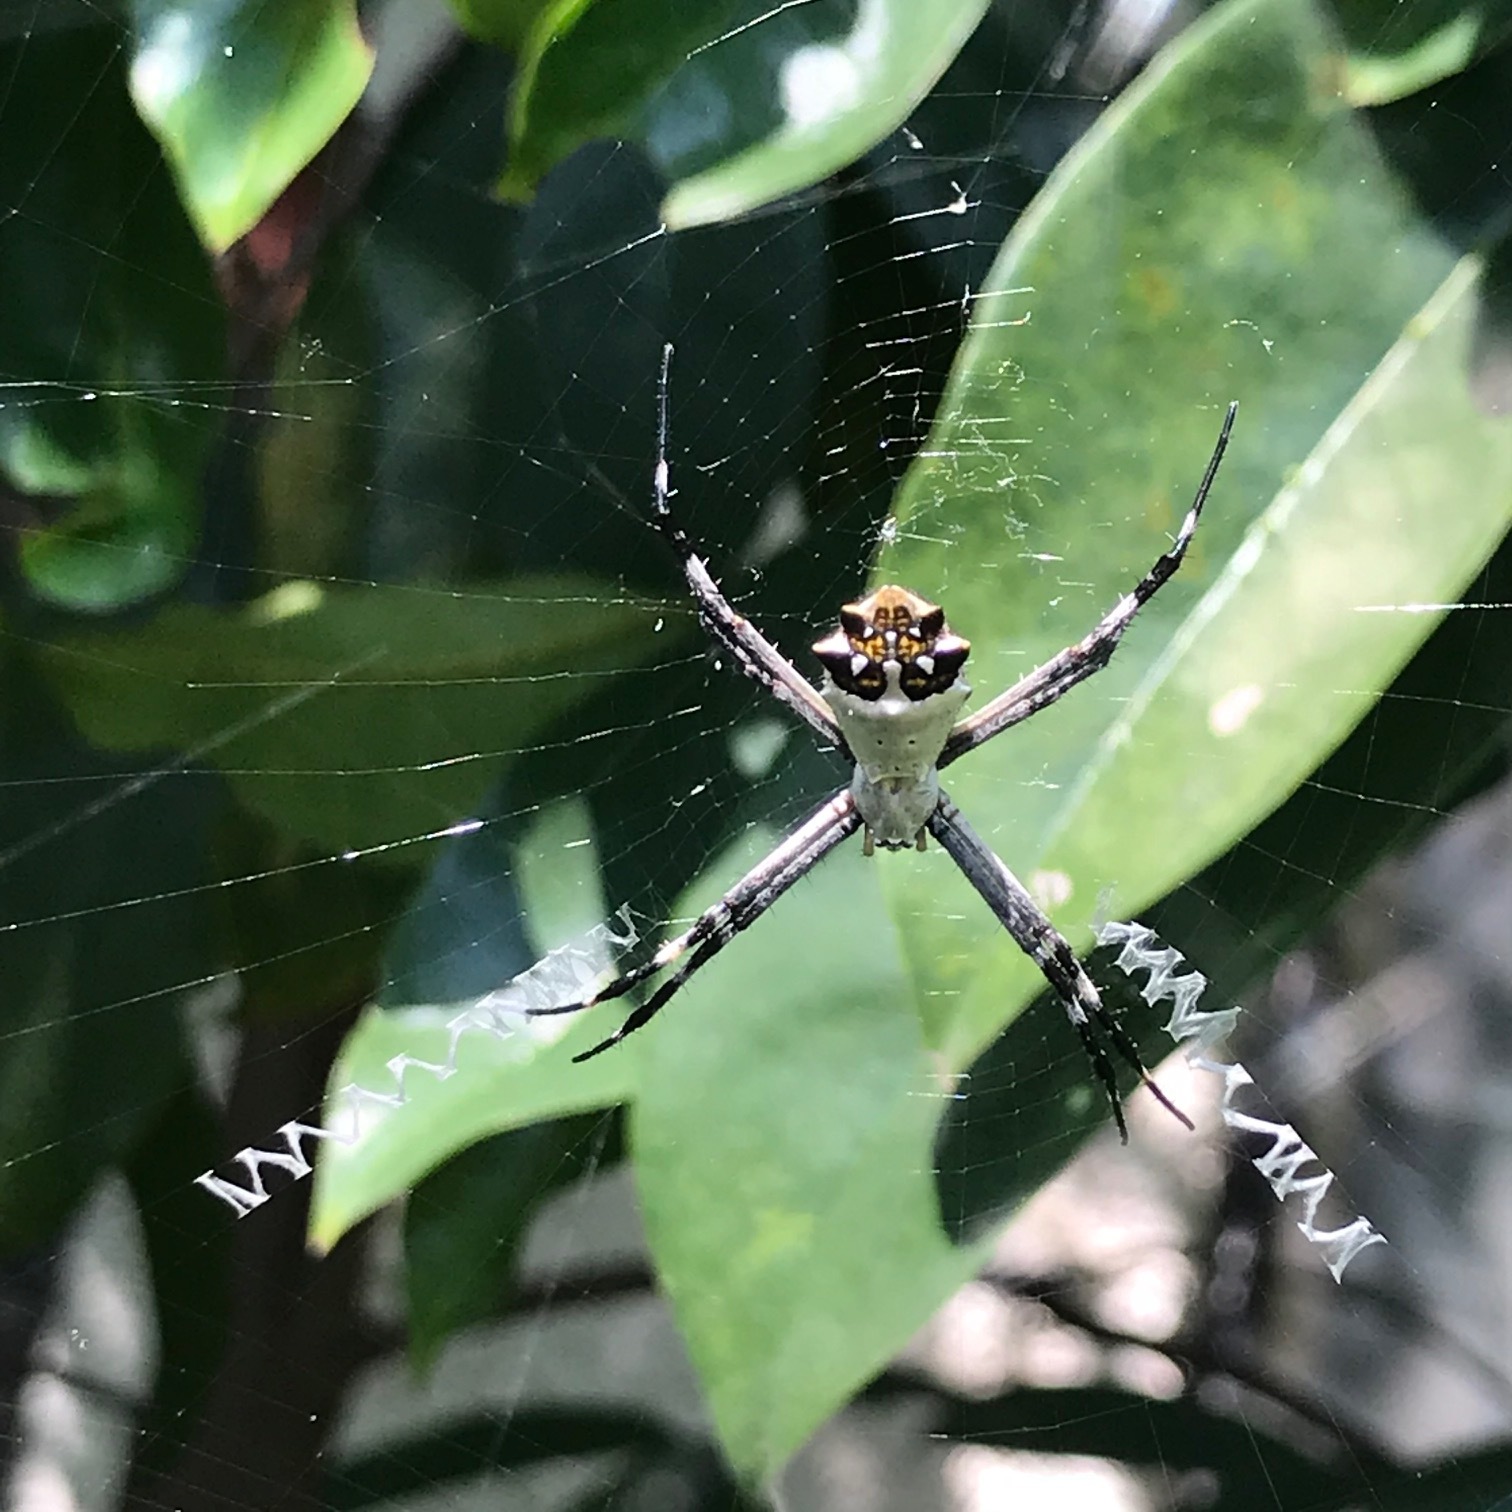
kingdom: Animalia
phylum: Arthropoda
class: Arachnida
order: Araneae
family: Araneidae
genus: Argiope
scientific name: Argiope argentata
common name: Orb weavers
